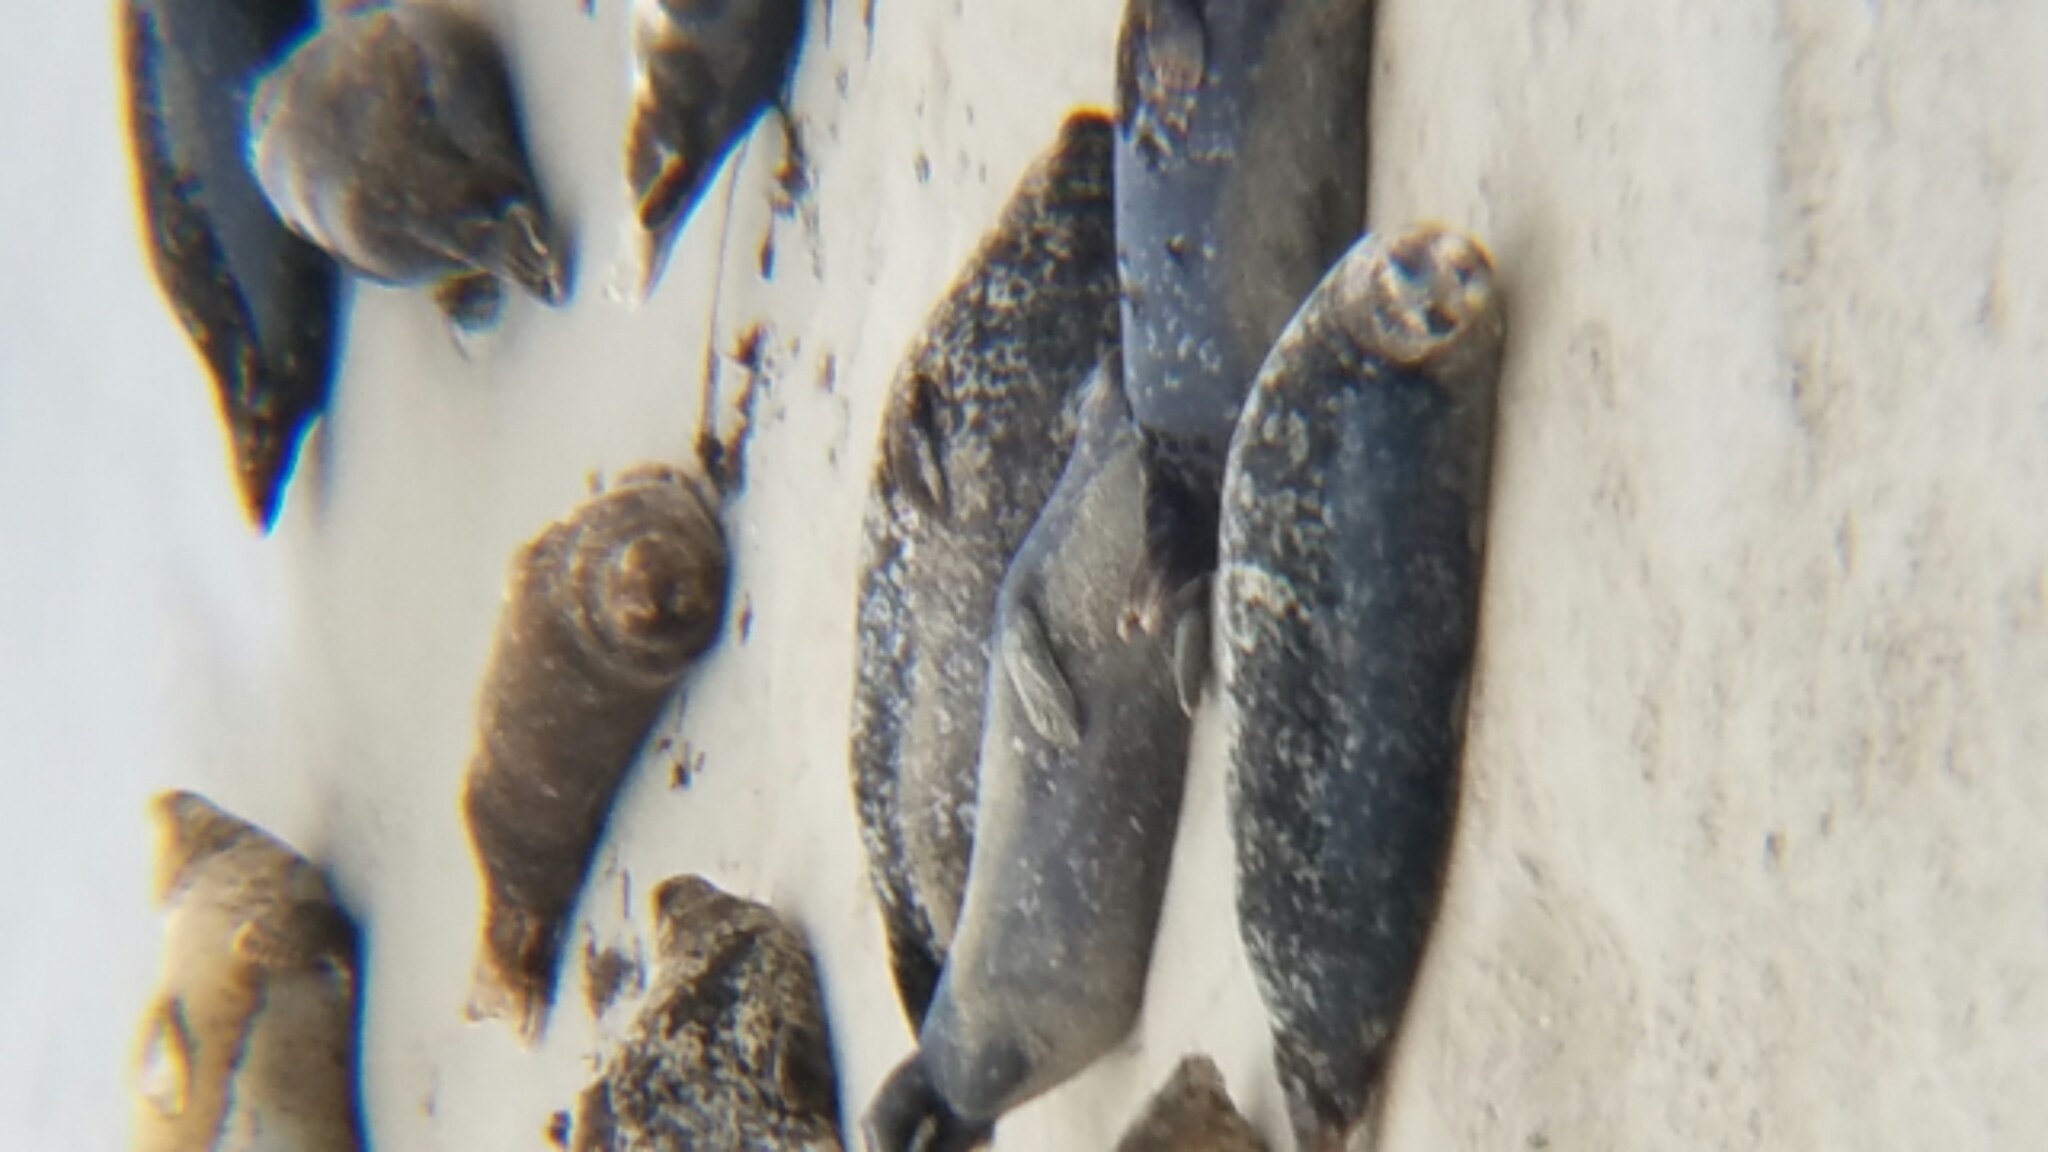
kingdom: Animalia
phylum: Chordata
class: Mammalia
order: Carnivora
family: Phocidae
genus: Phoca
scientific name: Phoca vitulina
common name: Harbor seal
